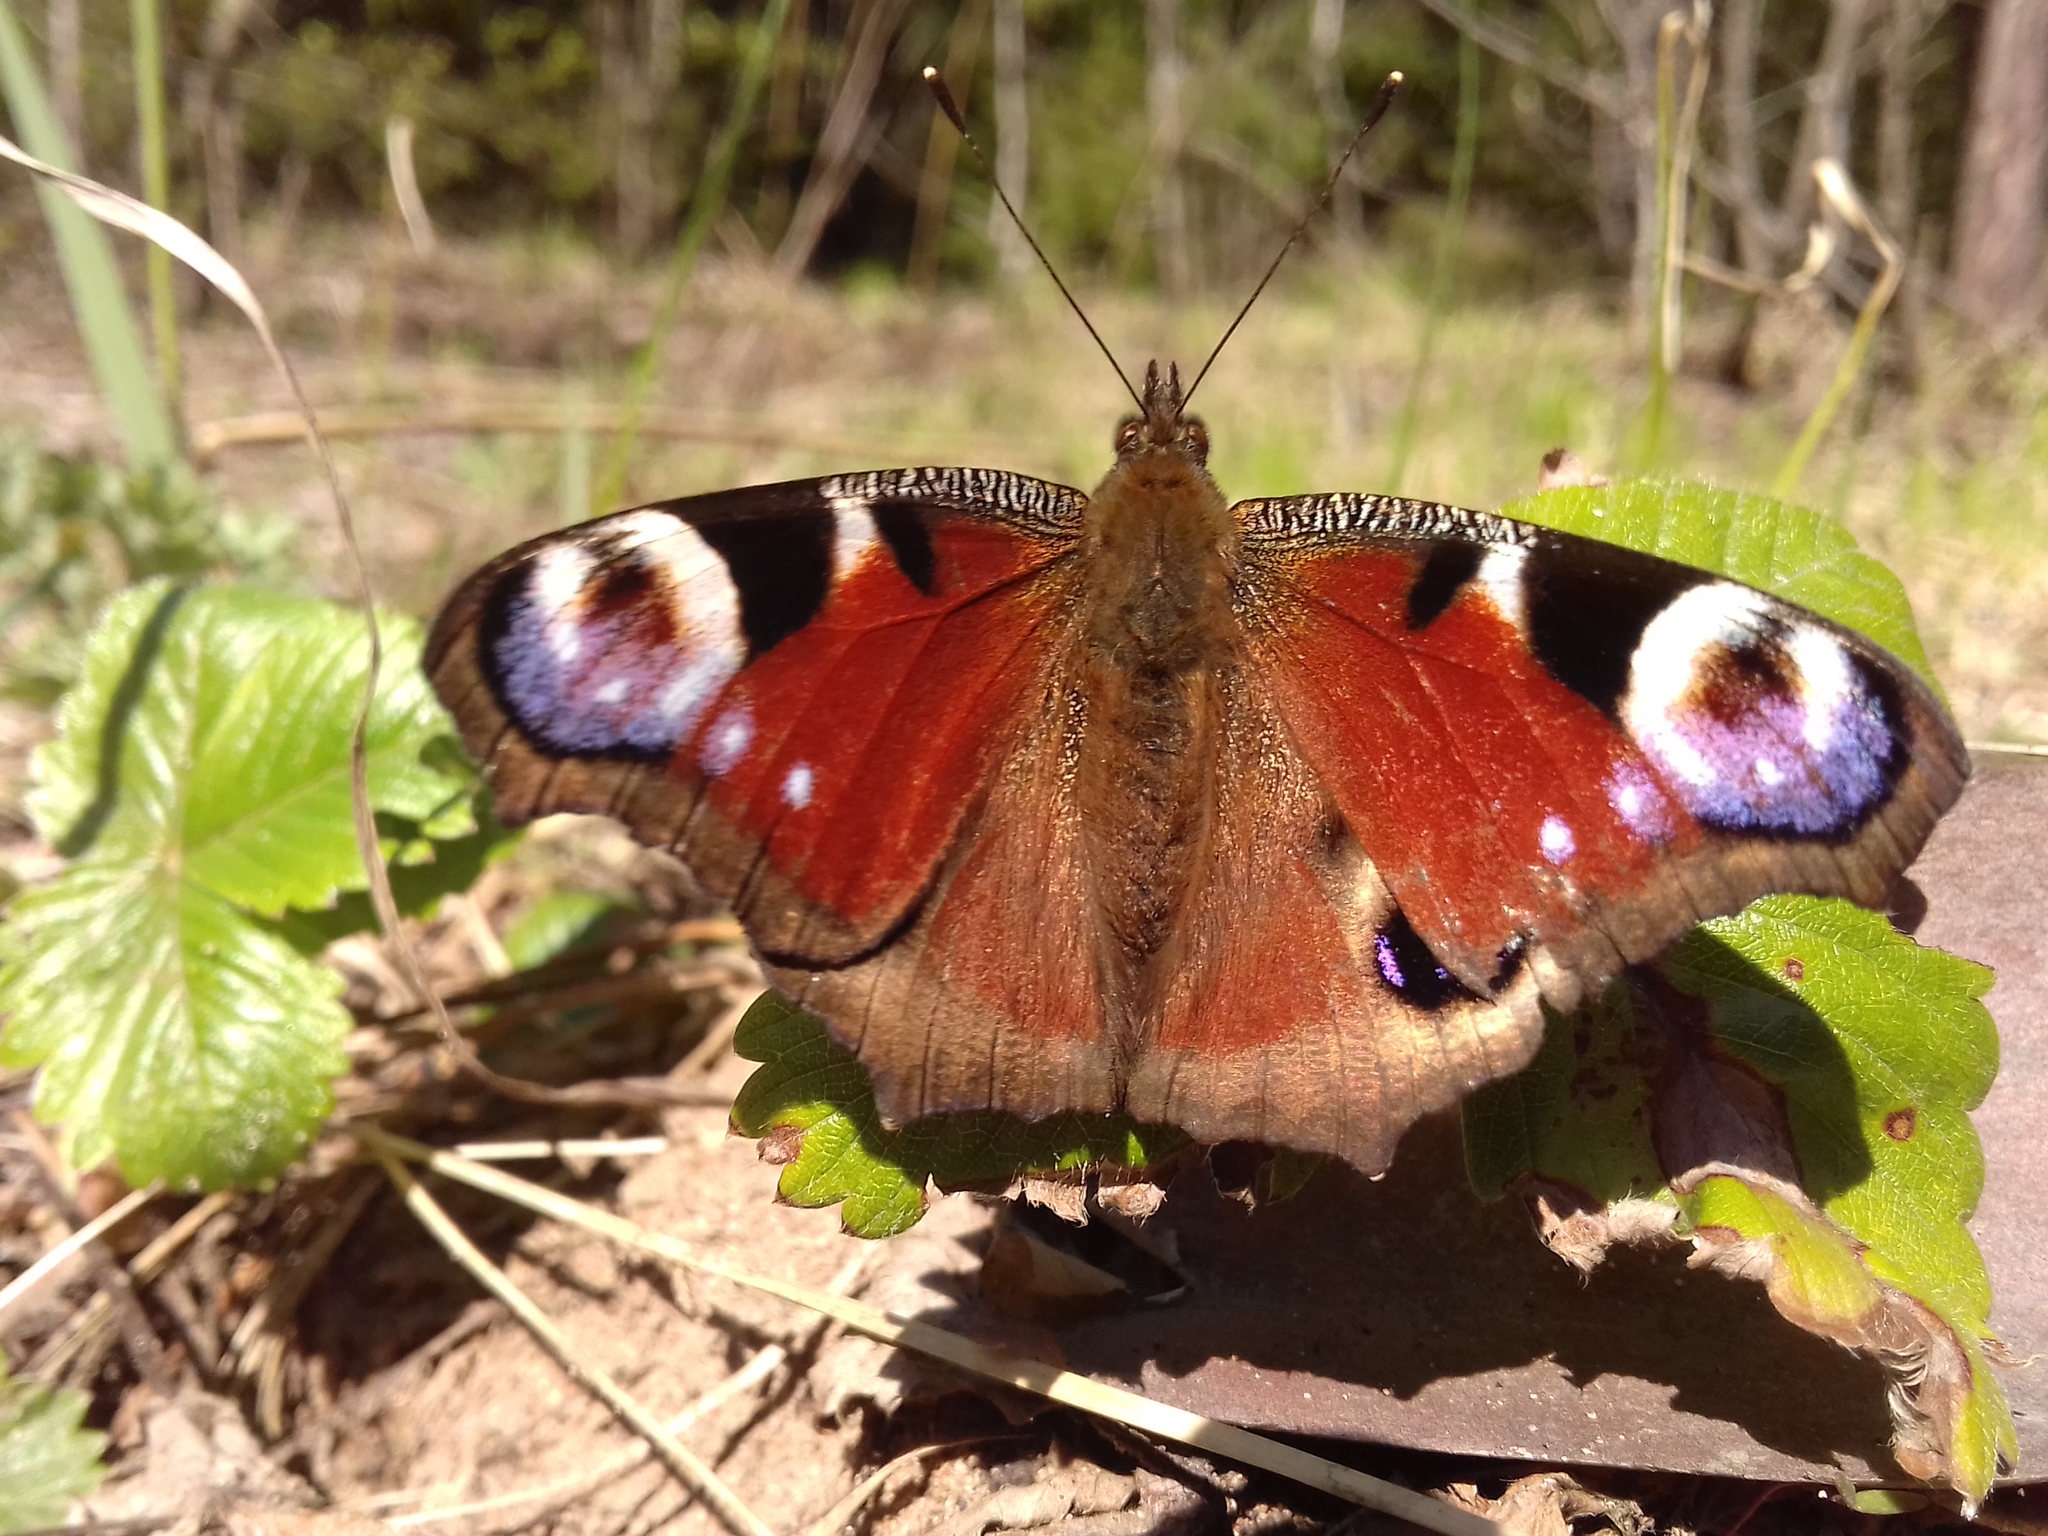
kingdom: Animalia
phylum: Arthropoda
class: Insecta
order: Lepidoptera
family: Nymphalidae
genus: Aglais
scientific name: Aglais io
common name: Peacock
